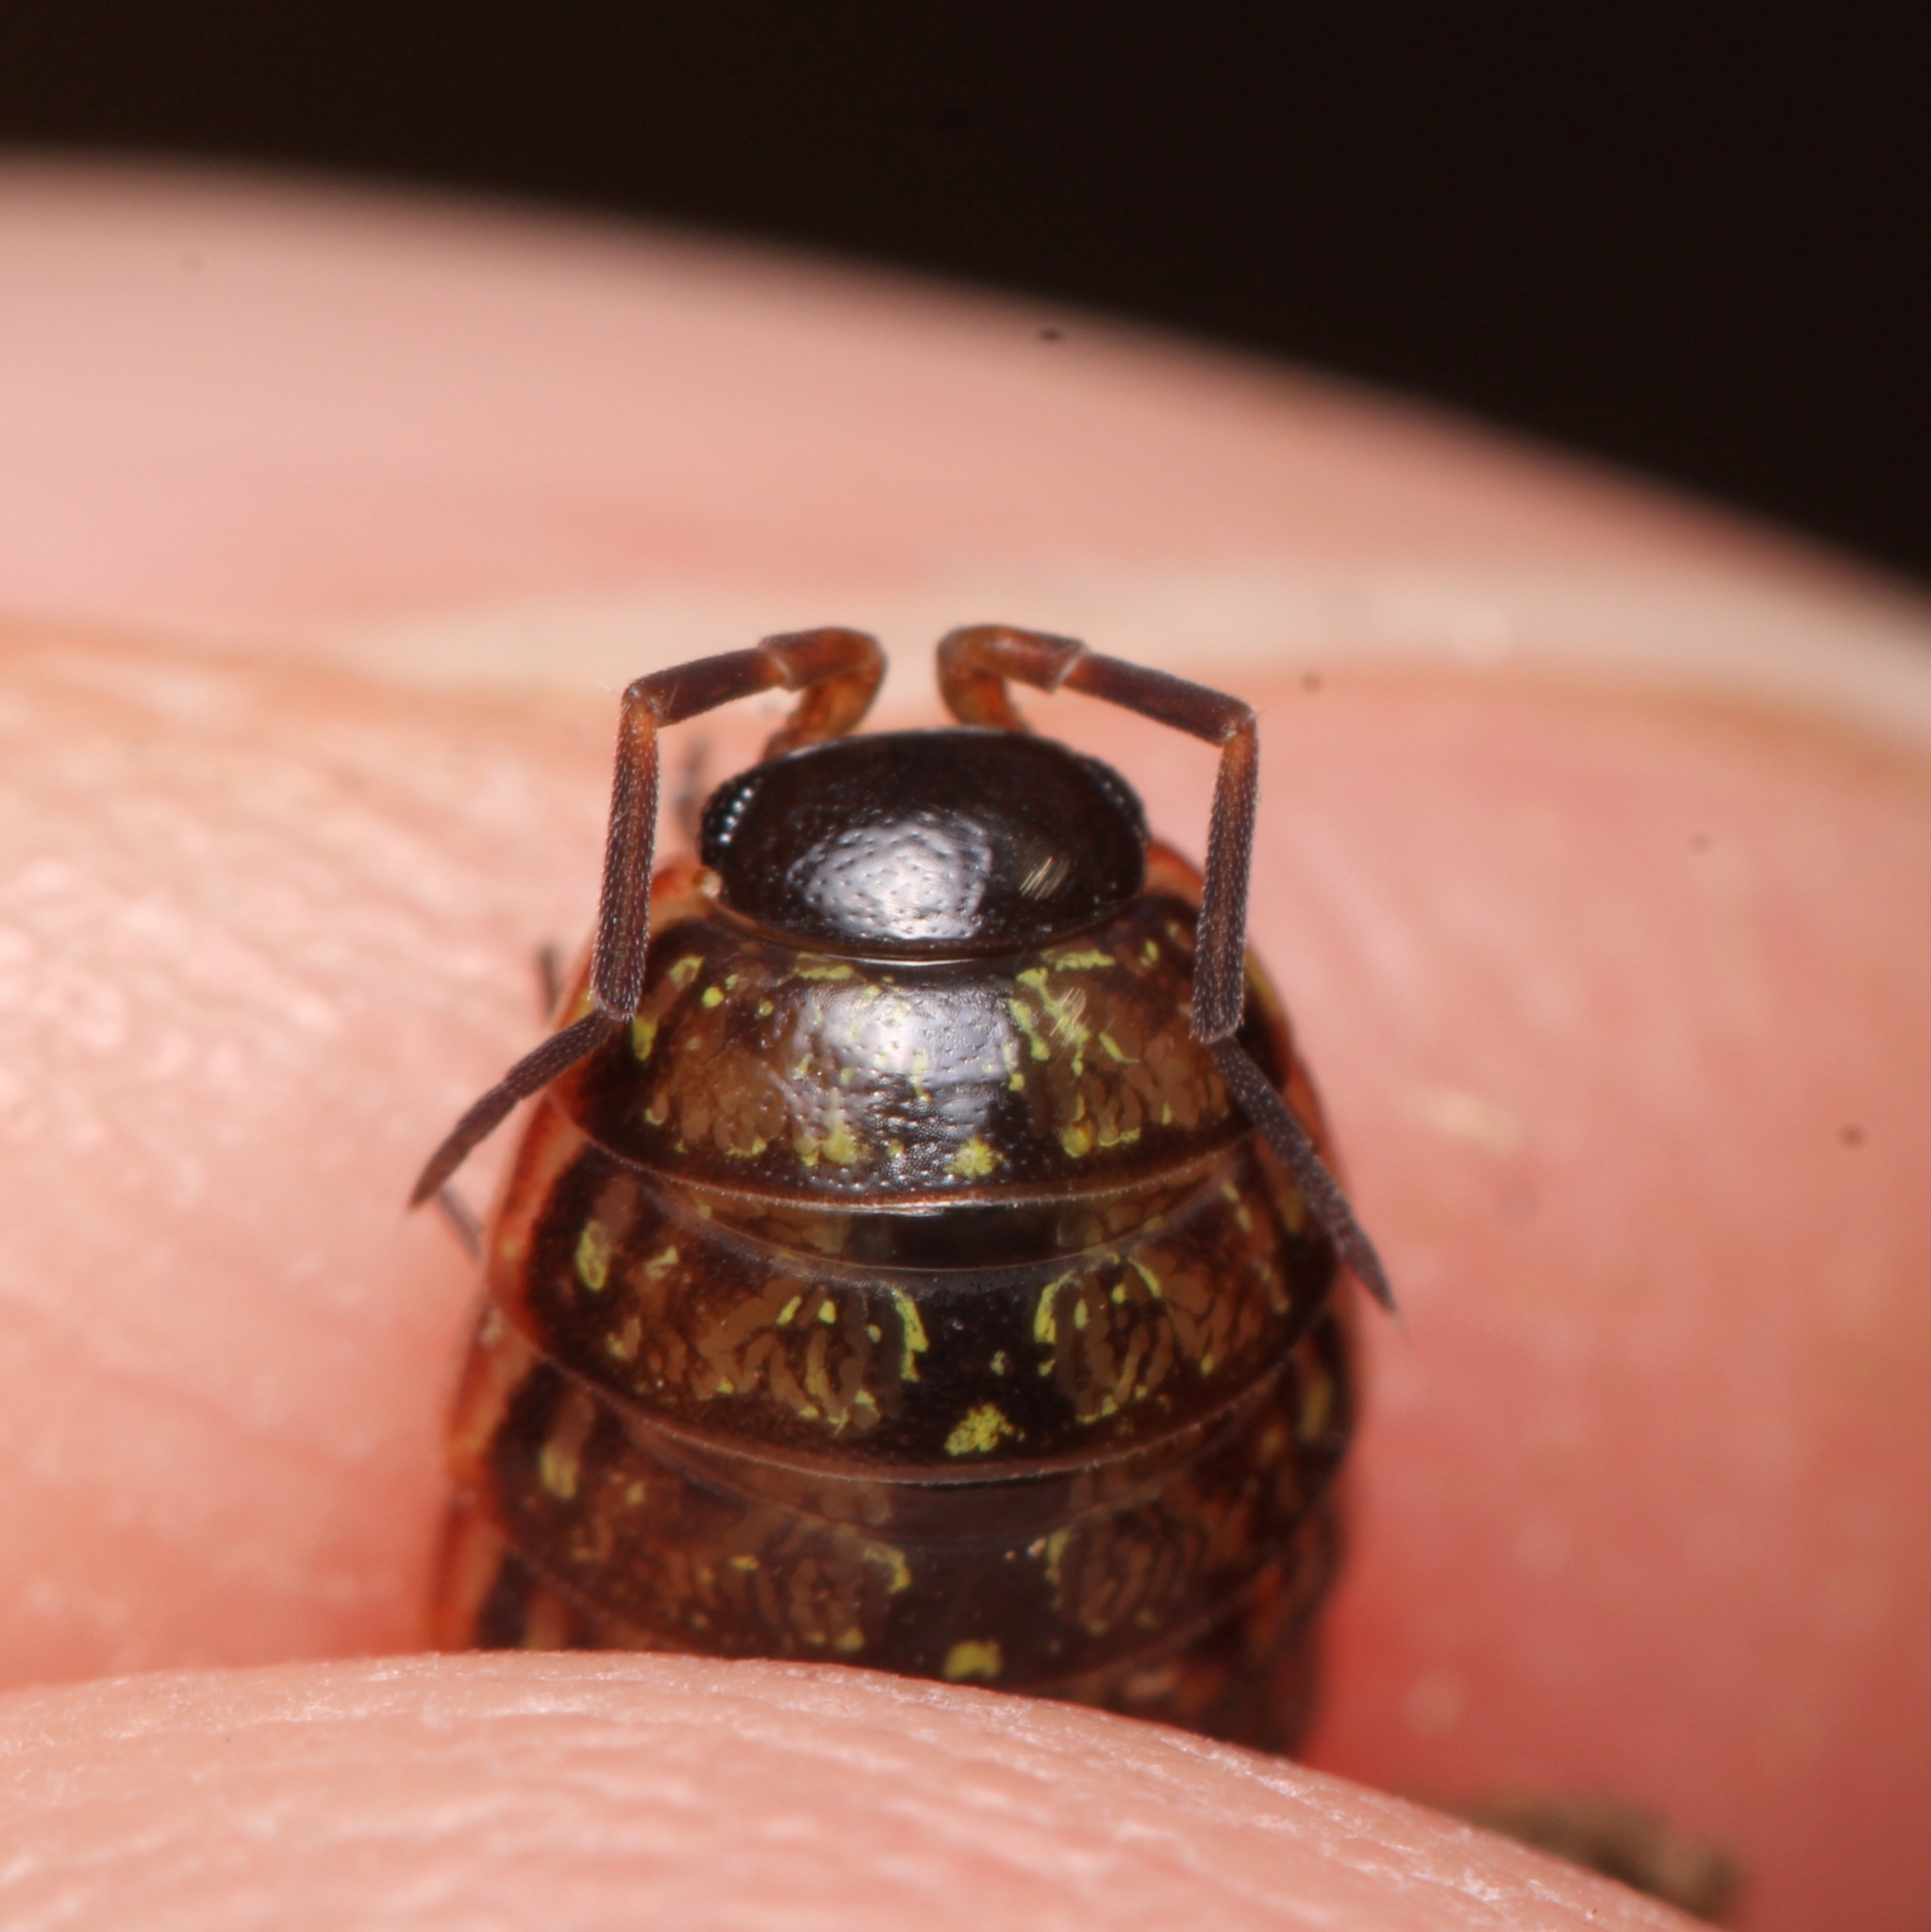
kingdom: Animalia
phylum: Arthropoda
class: Malacostraca
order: Isopoda
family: Philosciidae
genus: Philoscia
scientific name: Philoscia muscorum
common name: Common striped woodlouse
